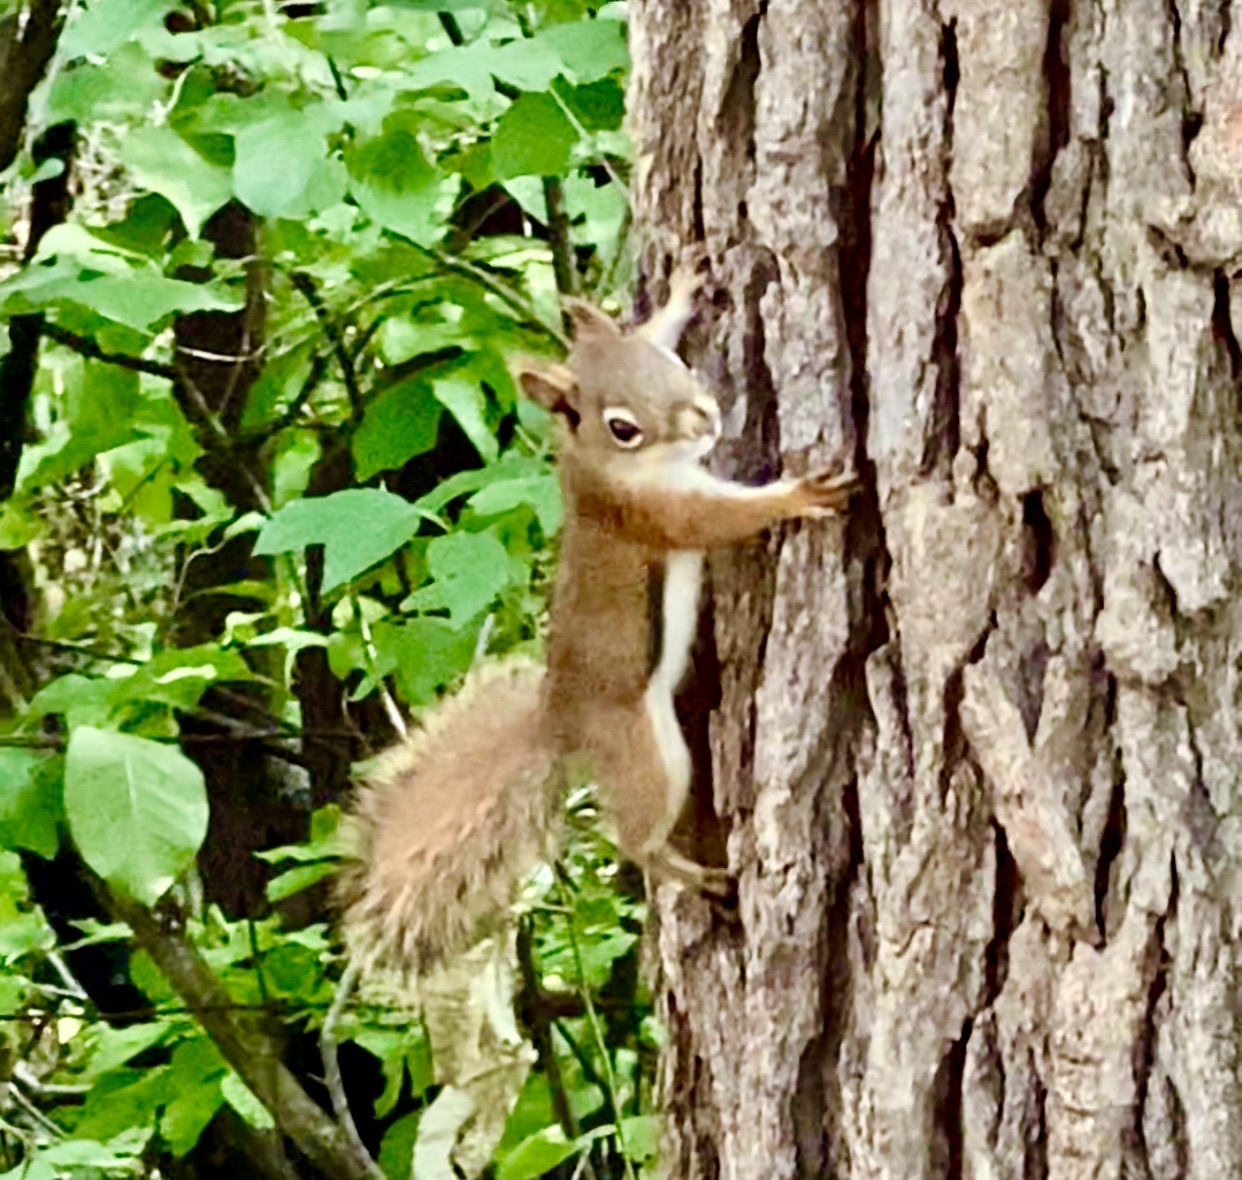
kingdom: Animalia
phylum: Chordata
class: Mammalia
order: Rodentia
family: Sciuridae
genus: Tamiasciurus
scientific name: Tamiasciurus hudsonicus
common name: Red squirrel
